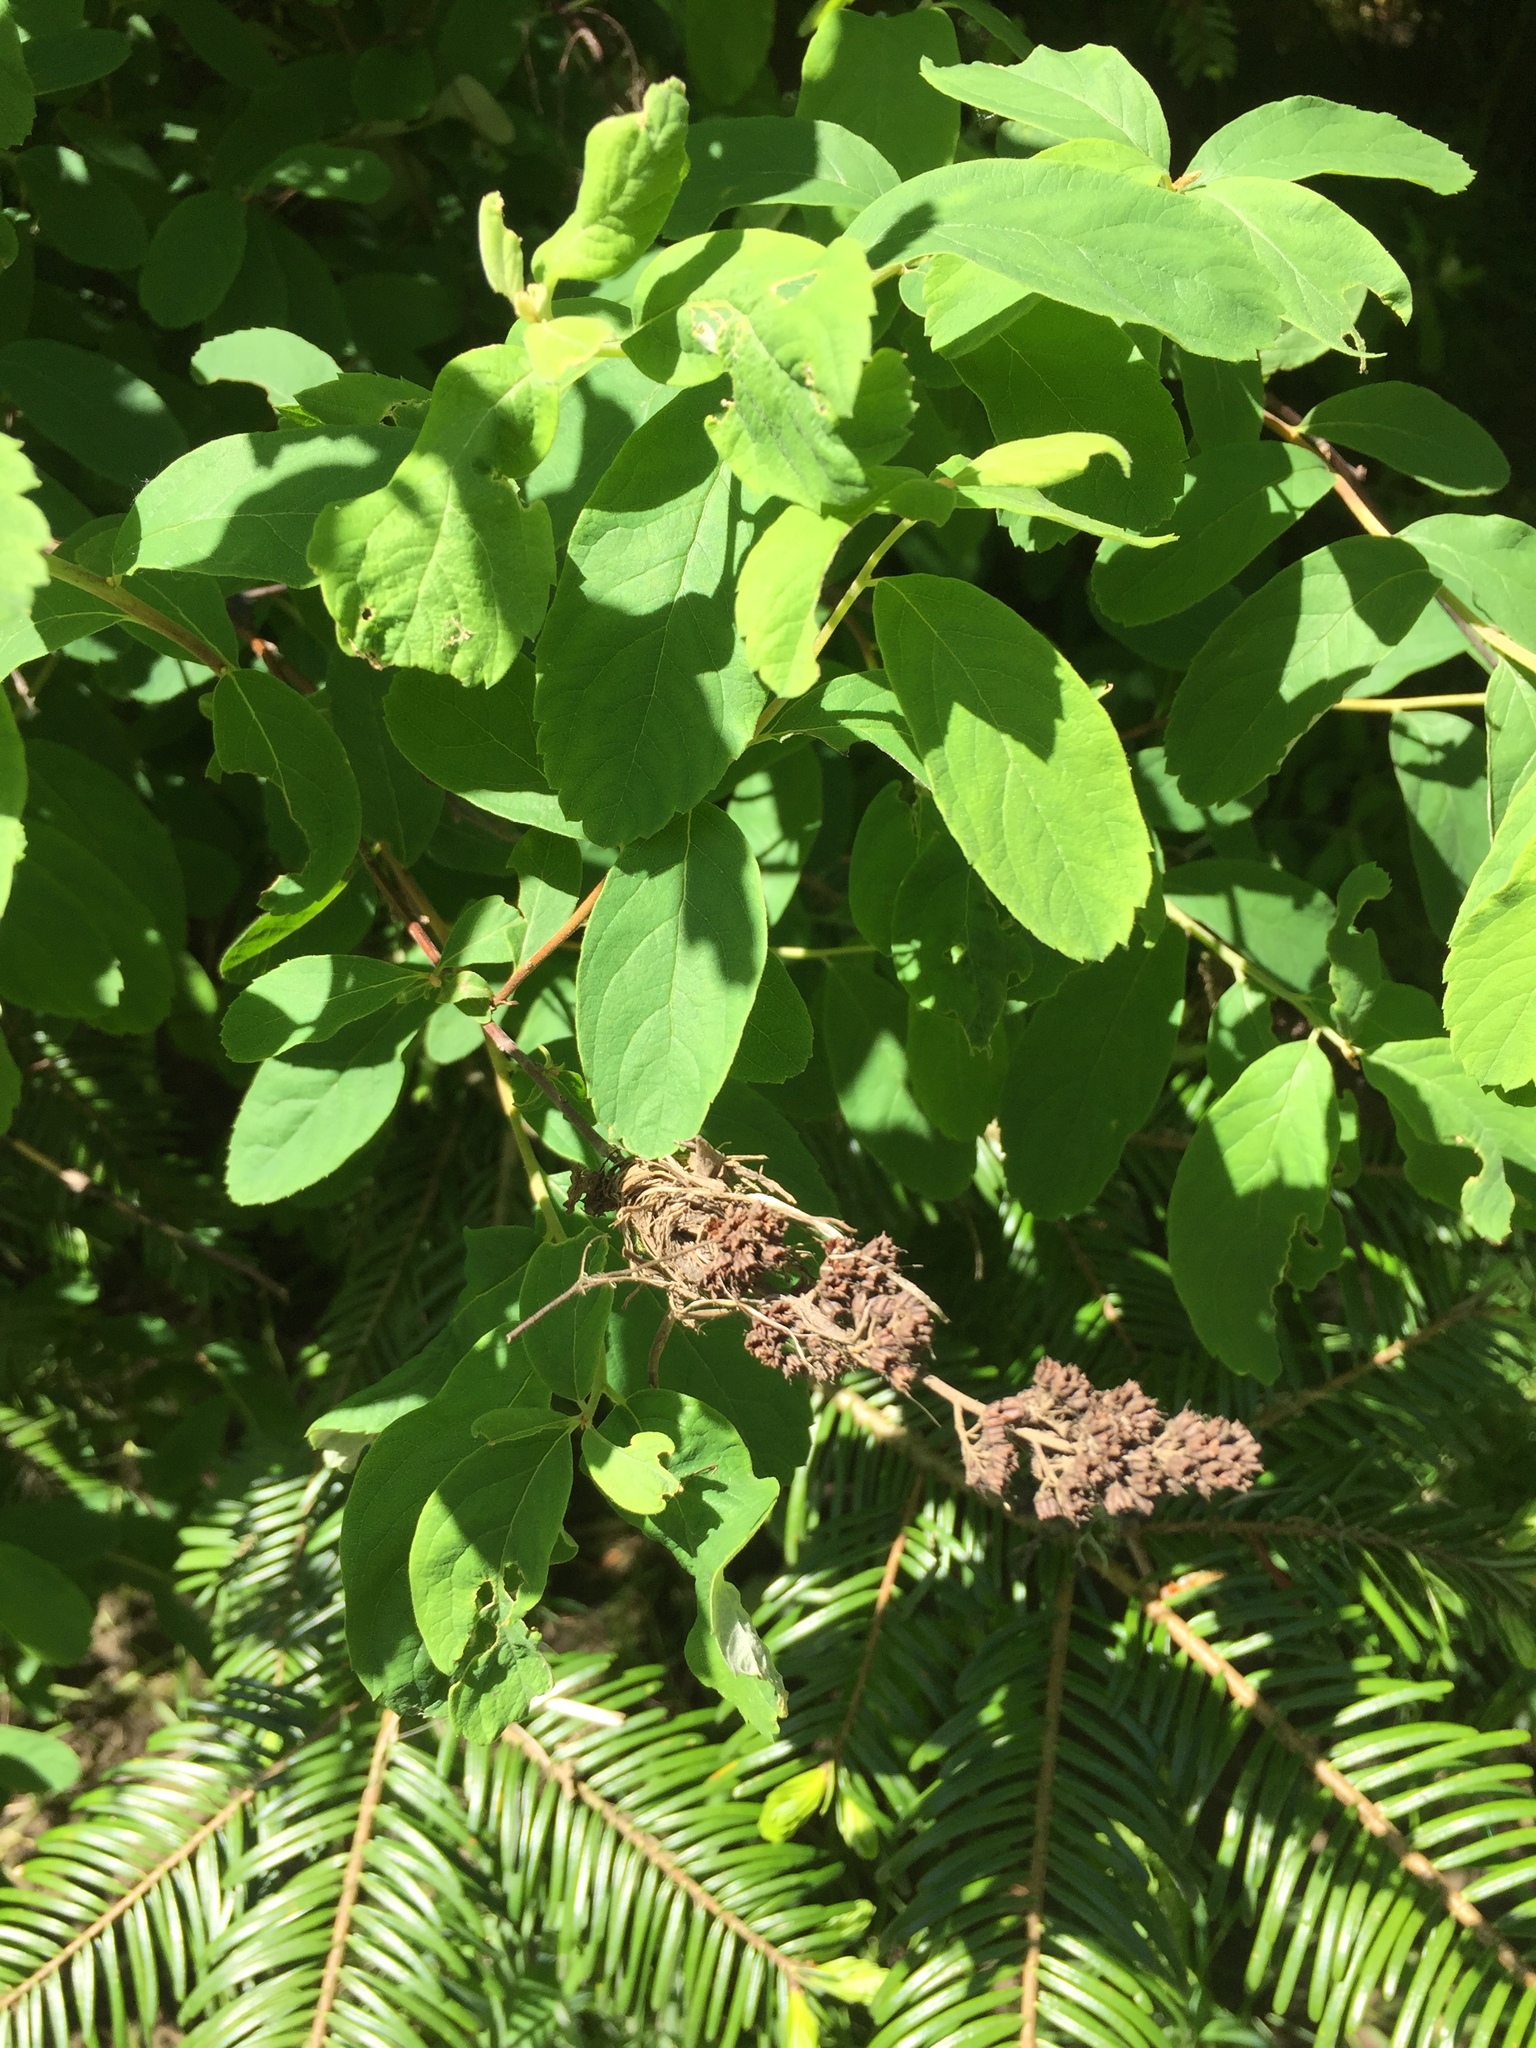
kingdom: Plantae
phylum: Tracheophyta
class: Magnoliopsida
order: Rosales
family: Rosaceae
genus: Spiraea
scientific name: Spiraea douglasii
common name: Steeplebush
